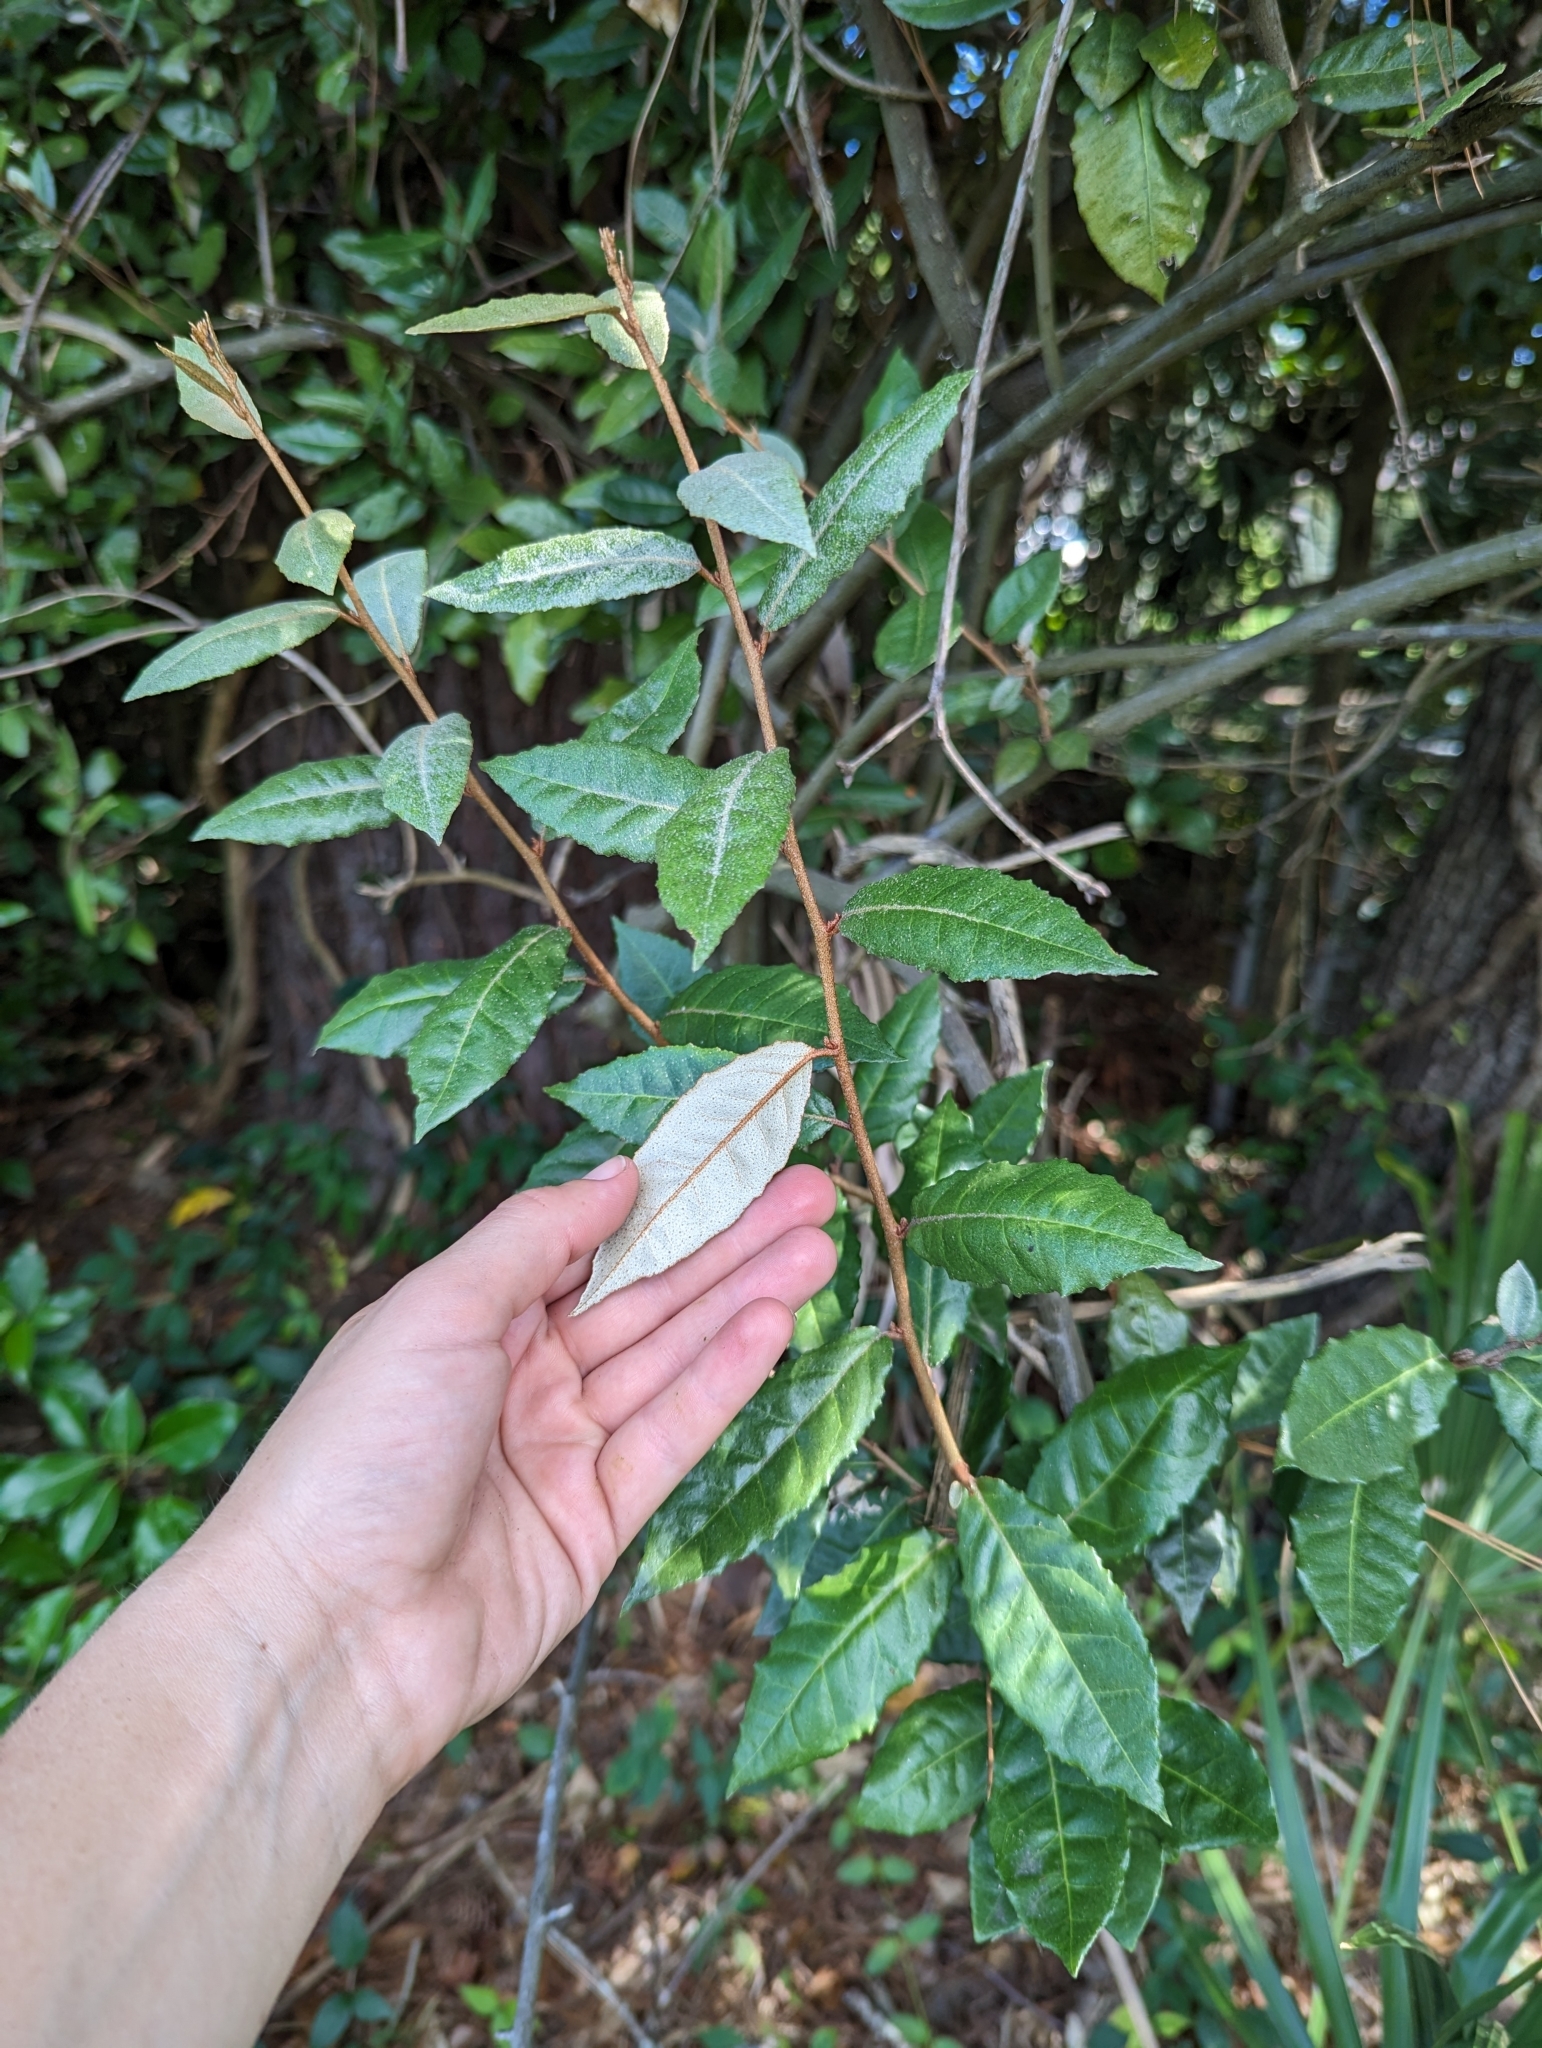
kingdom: Plantae
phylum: Tracheophyta
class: Magnoliopsida
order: Rosales
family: Elaeagnaceae
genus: Elaeagnus
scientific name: Elaeagnus pungens
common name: Spiny oleaster
